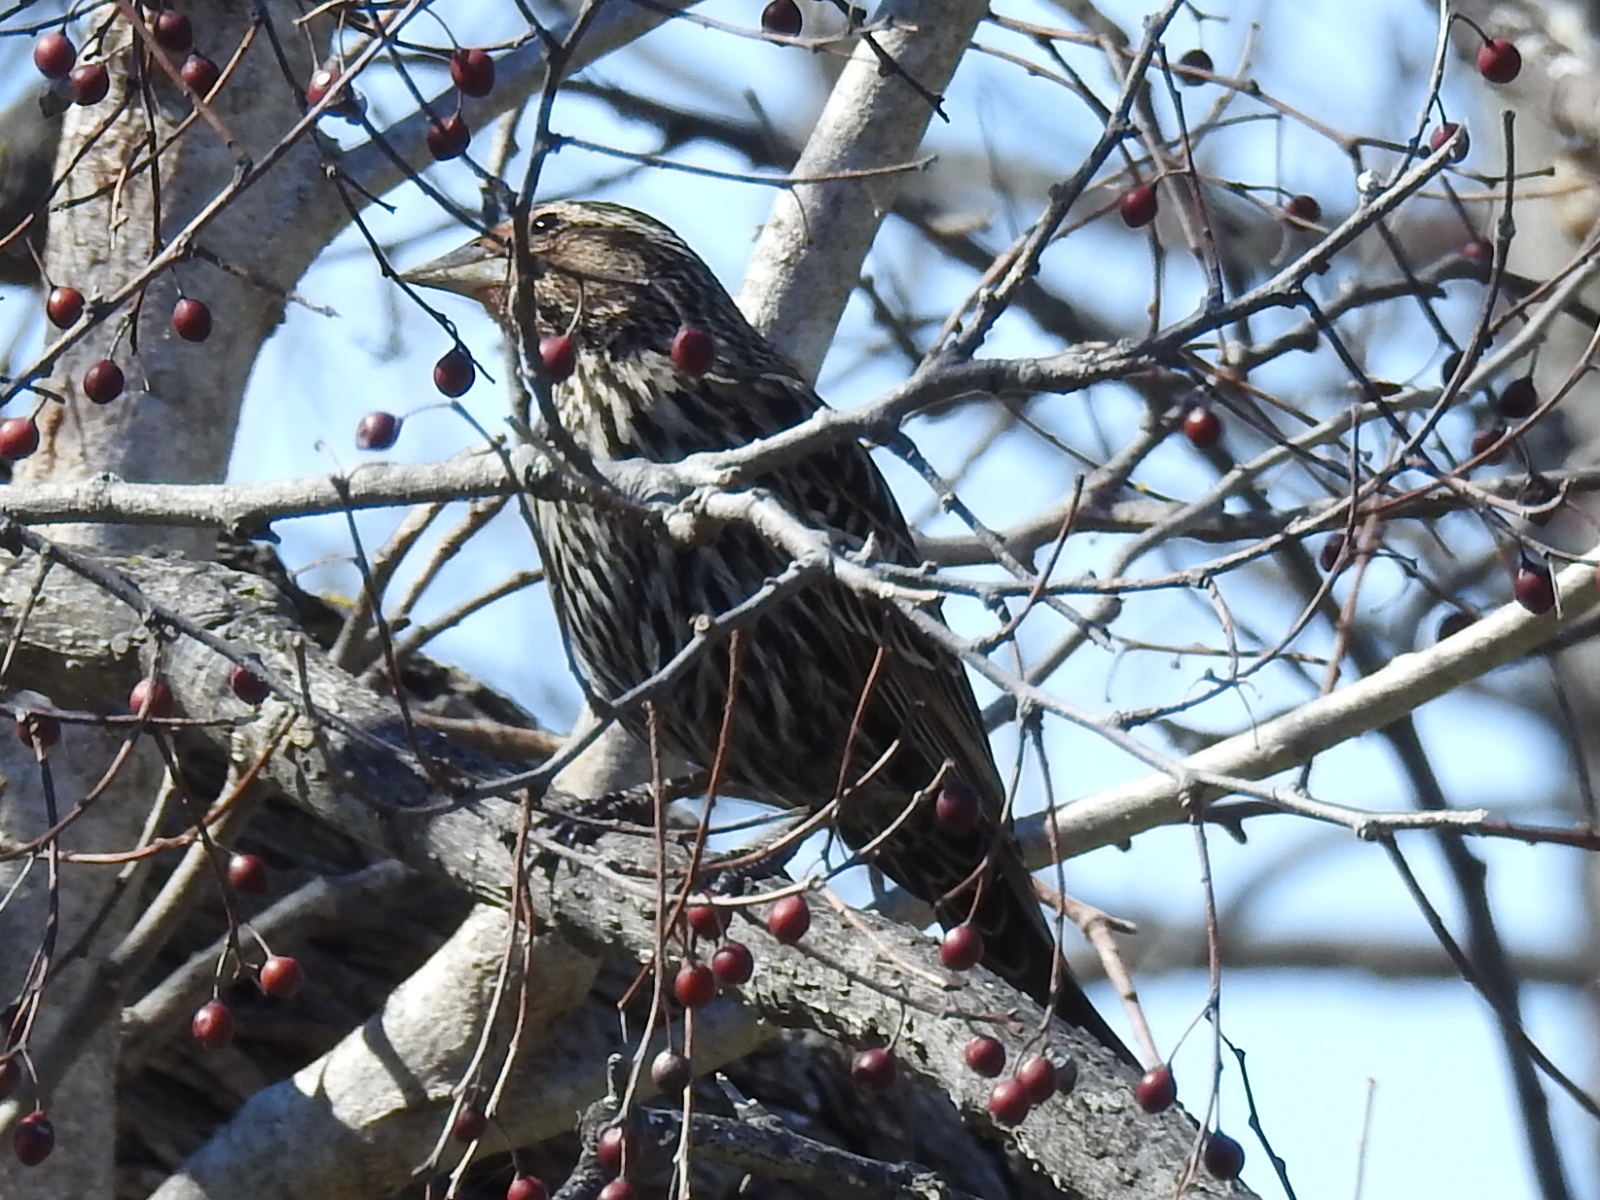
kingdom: Animalia
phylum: Chordata
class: Aves
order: Passeriformes
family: Icteridae
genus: Agelaius
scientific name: Agelaius phoeniceus
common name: Red-winged blackbird
